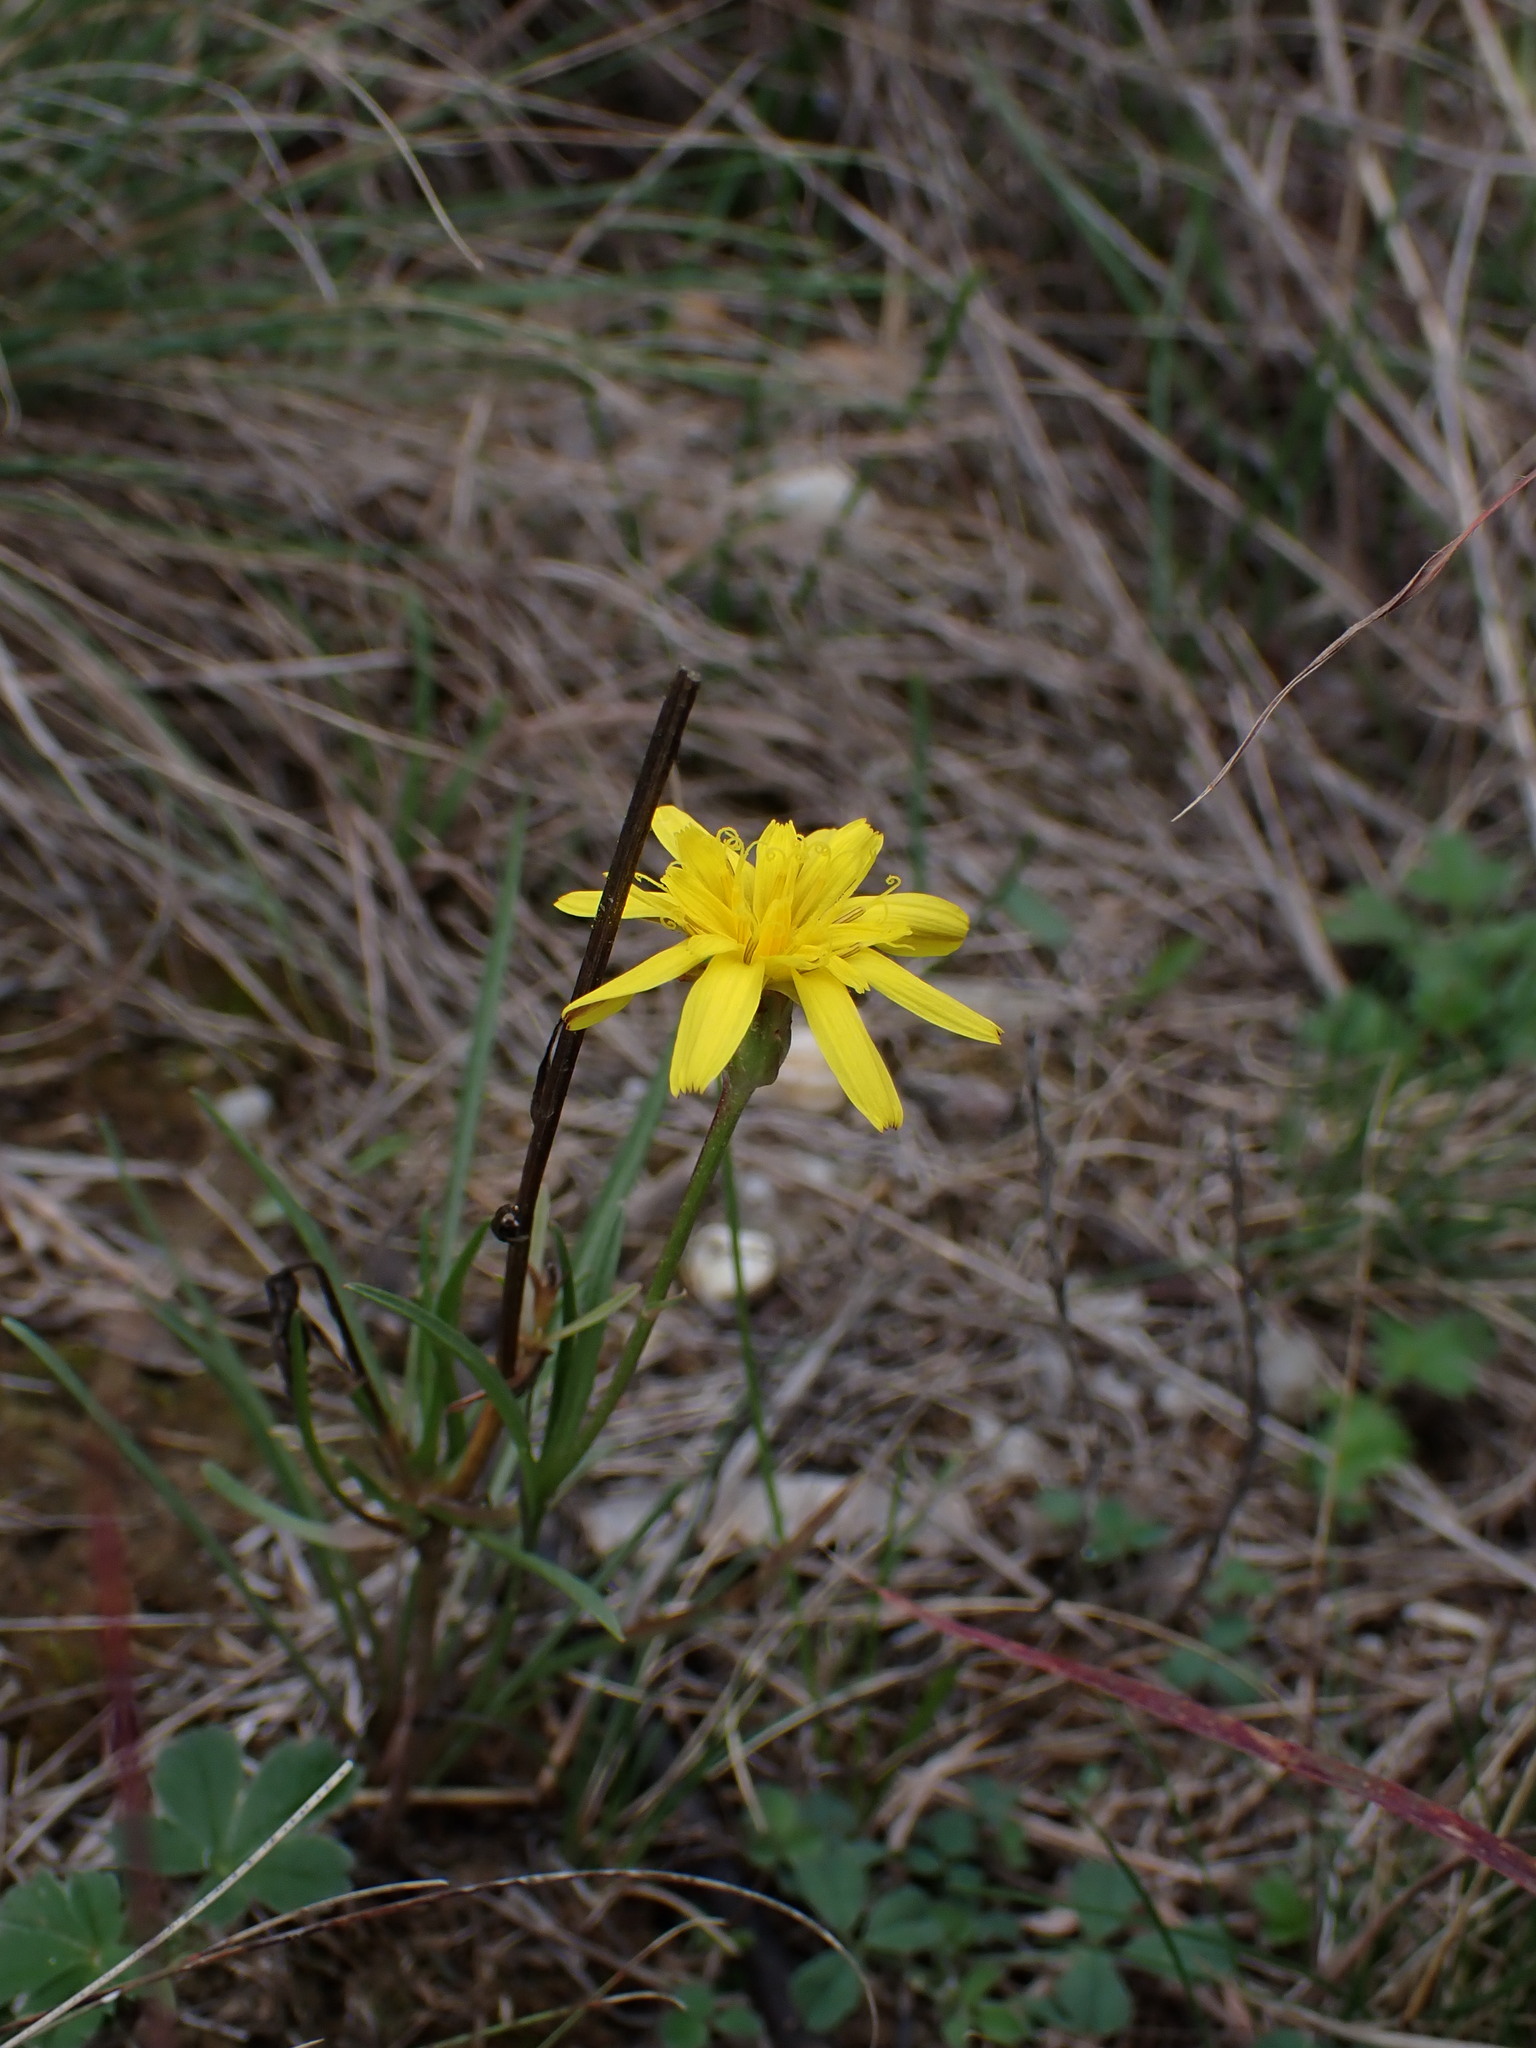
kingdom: Plantae
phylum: Tracheophyta
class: Magnoliopsida
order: Asterales
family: Asteraceae
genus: Scorzonera
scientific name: Scorzonera cana
